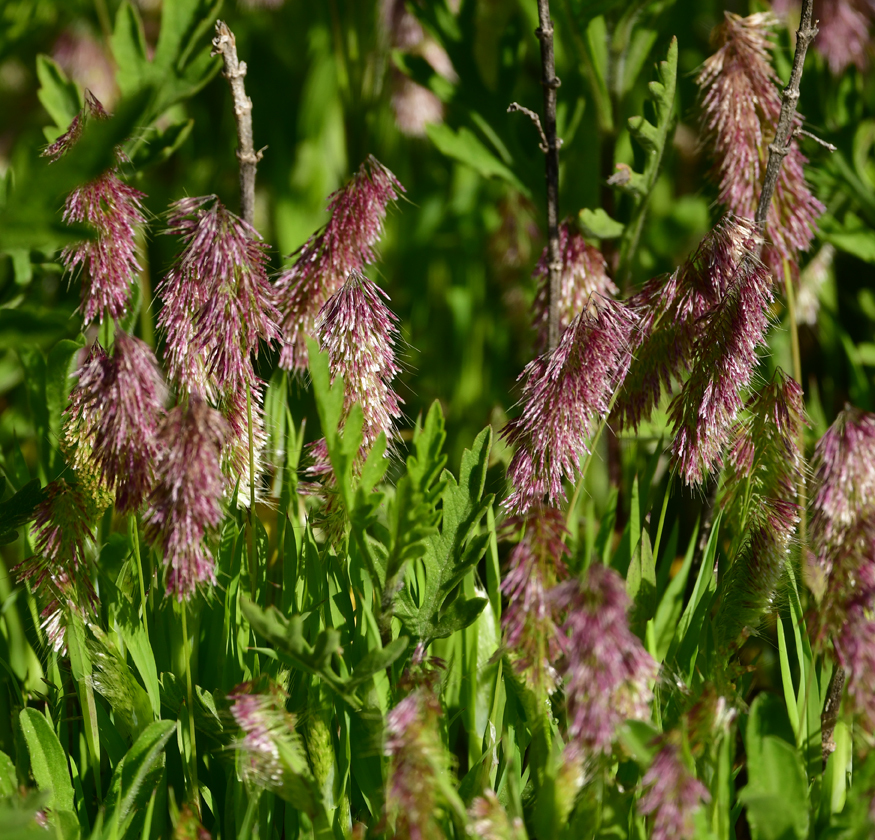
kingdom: Plantae
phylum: Tracheophyta
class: Liliopsida
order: Poales
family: Poaceae
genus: Lamarckia
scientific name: Lamarckia aurea
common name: Golden dog's-tail
